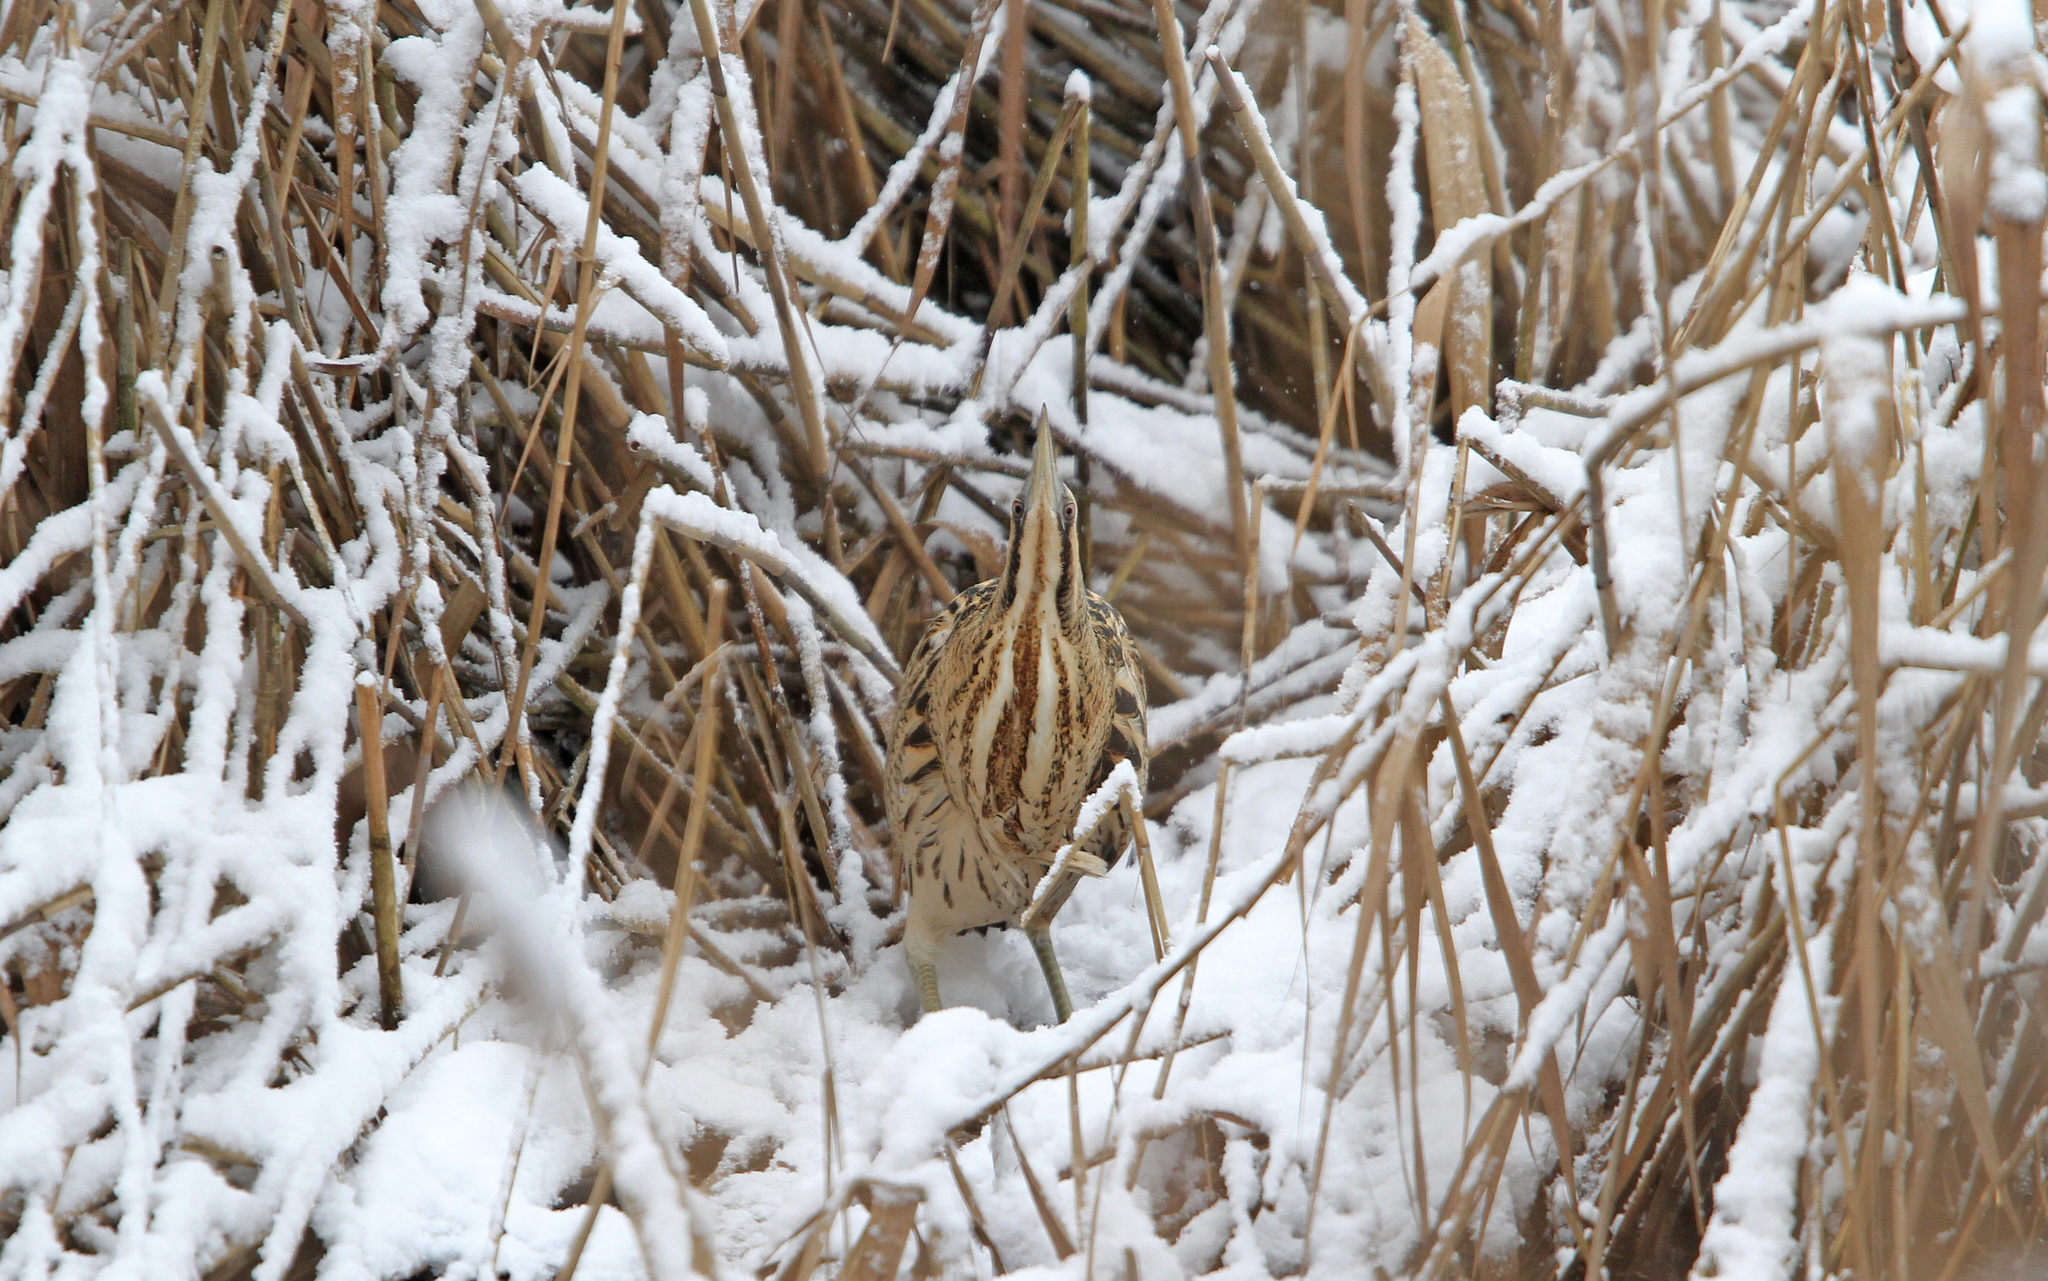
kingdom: Animalia
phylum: Chordata
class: Aves
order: Pelecaniformes
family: Ardeidae
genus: Botaurus
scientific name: Botaurus stellaris
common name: Eurasian bittern
